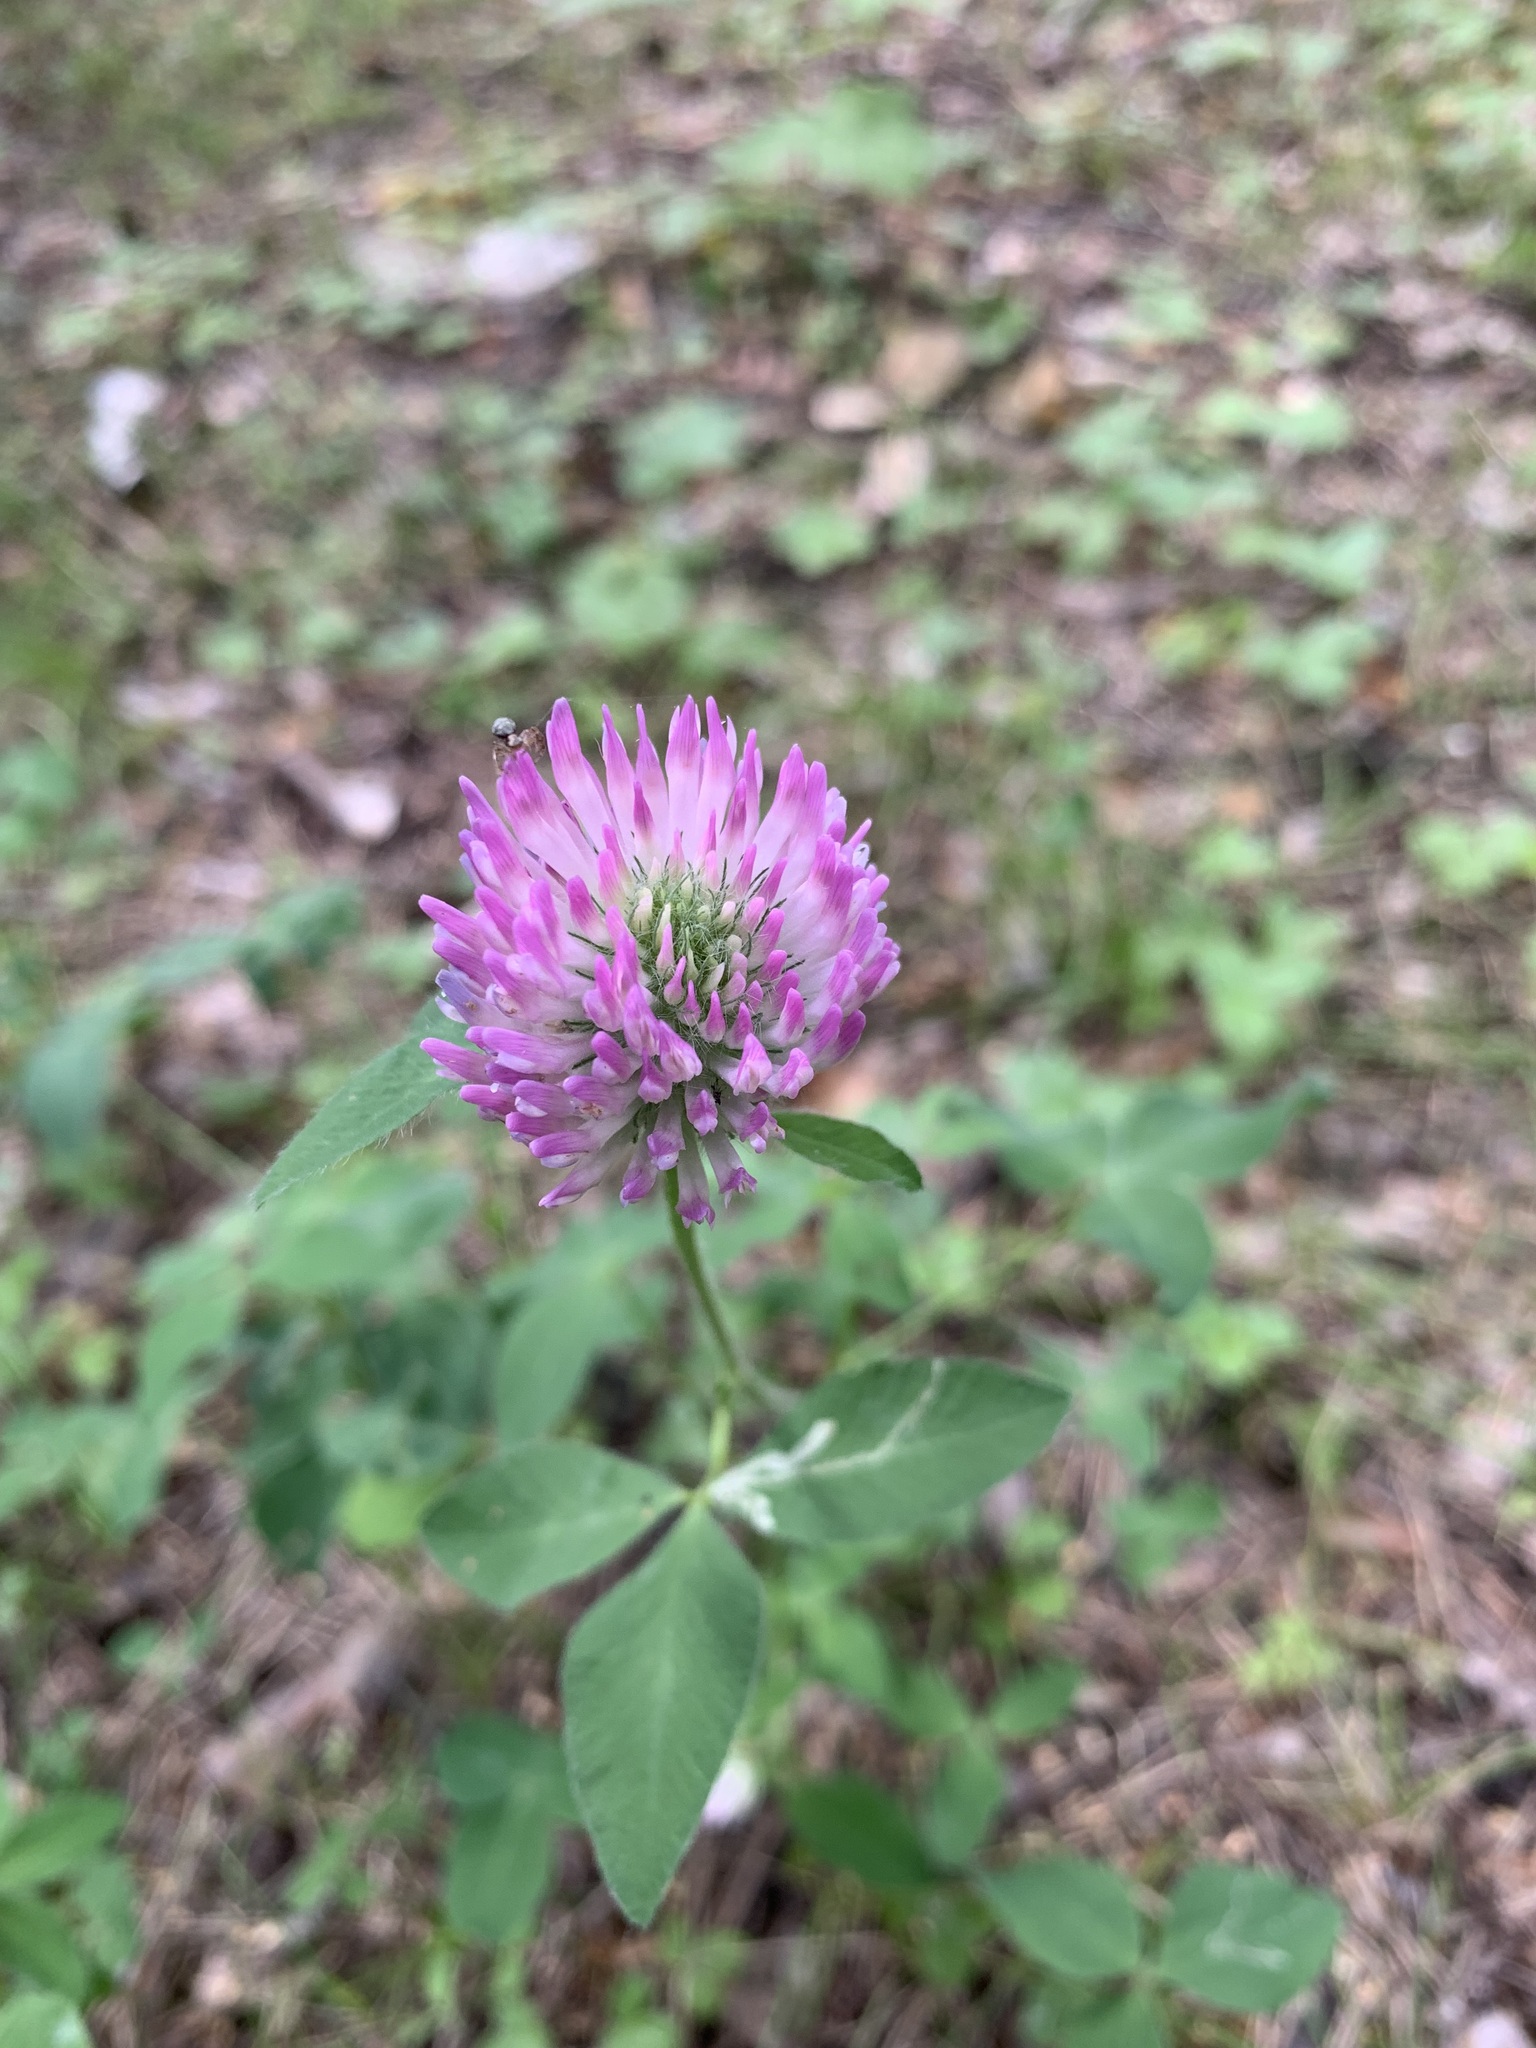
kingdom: Plantae
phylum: Tracheophyta
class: Magnoliopsida
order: Fabales
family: Fabaceae
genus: Trifolium
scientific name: Trifolium pratense
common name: Red clover
